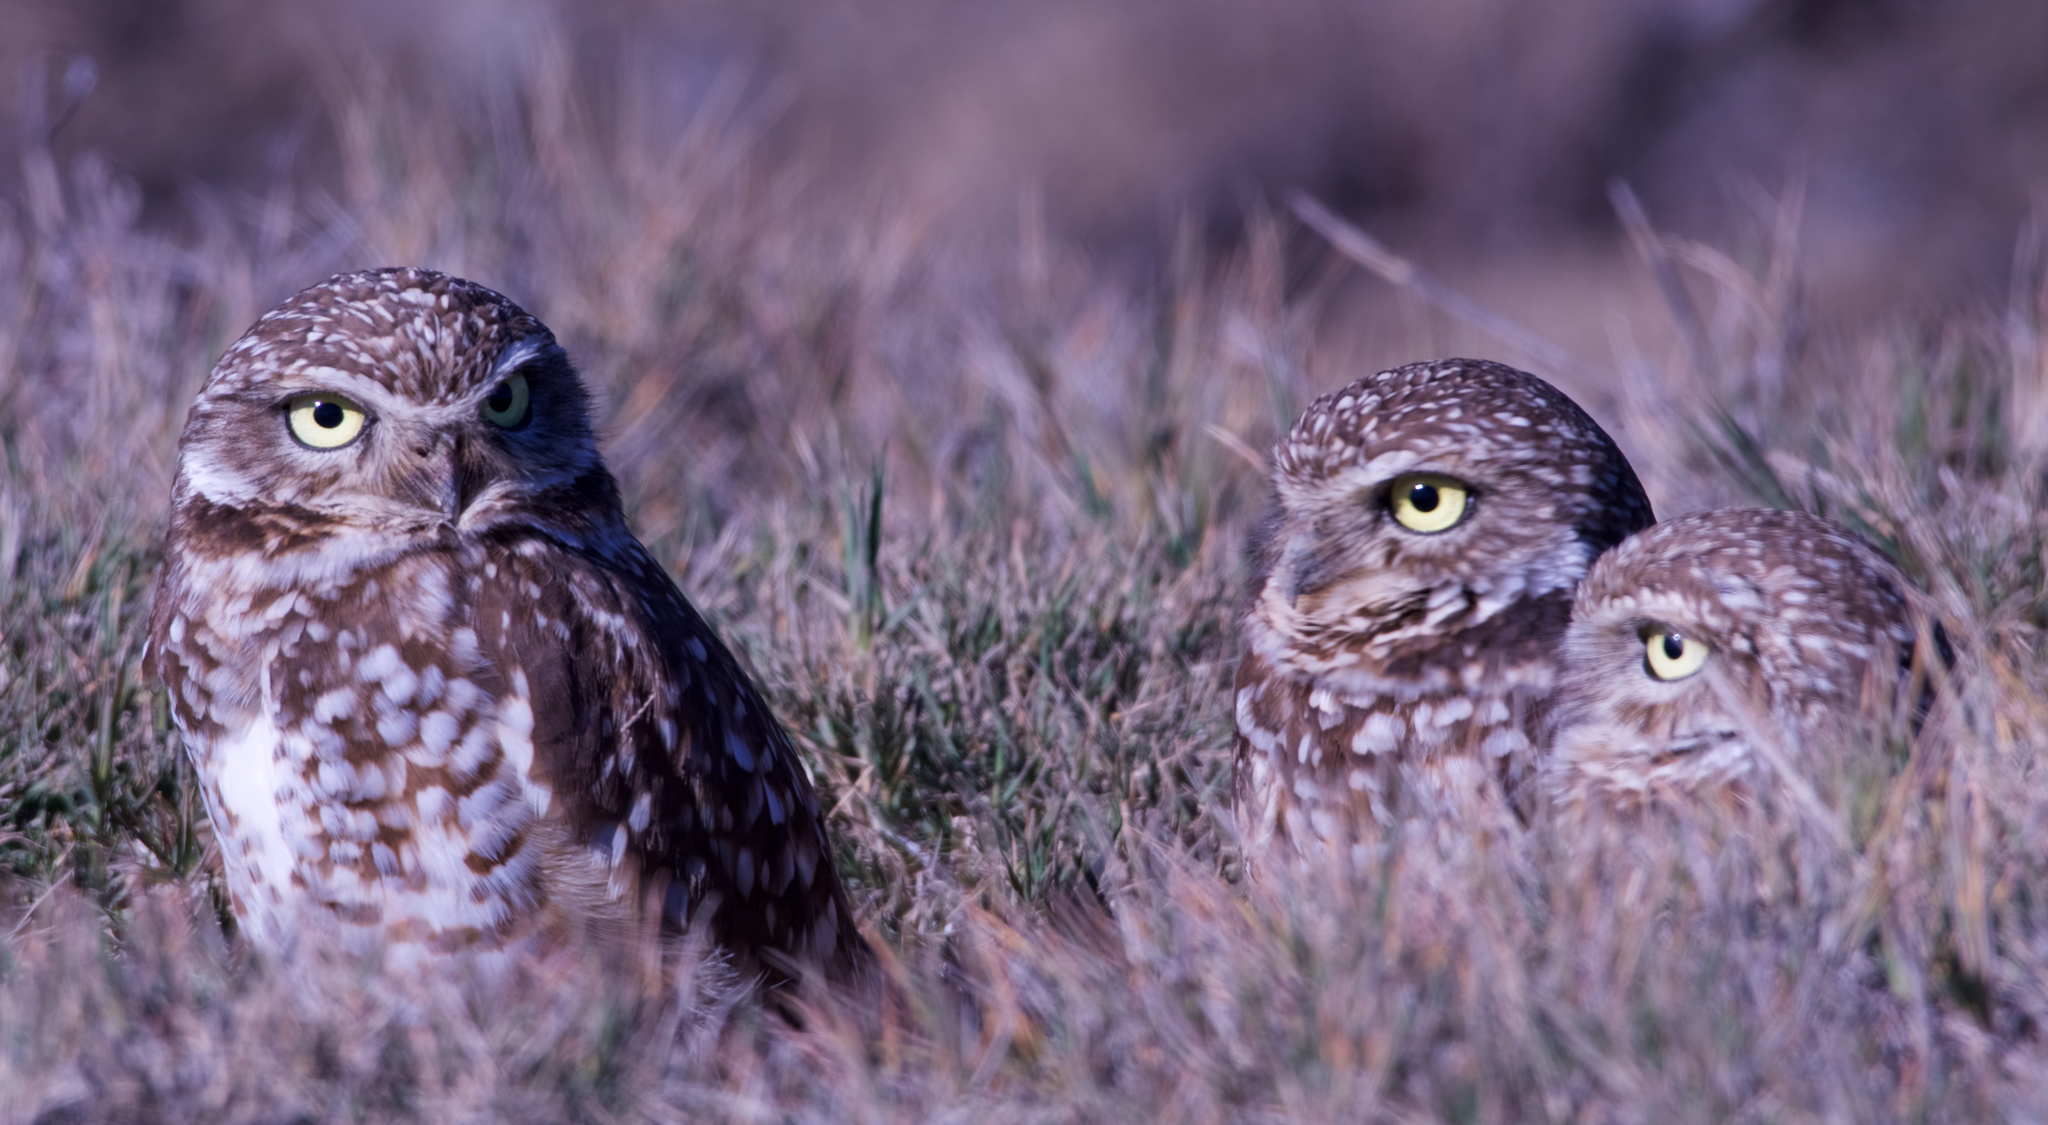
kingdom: Animalia
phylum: Chordata
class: Aves
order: Strigiformes
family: Strigidae
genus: Athene
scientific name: Athene cunicularia
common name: Burrowing owl
